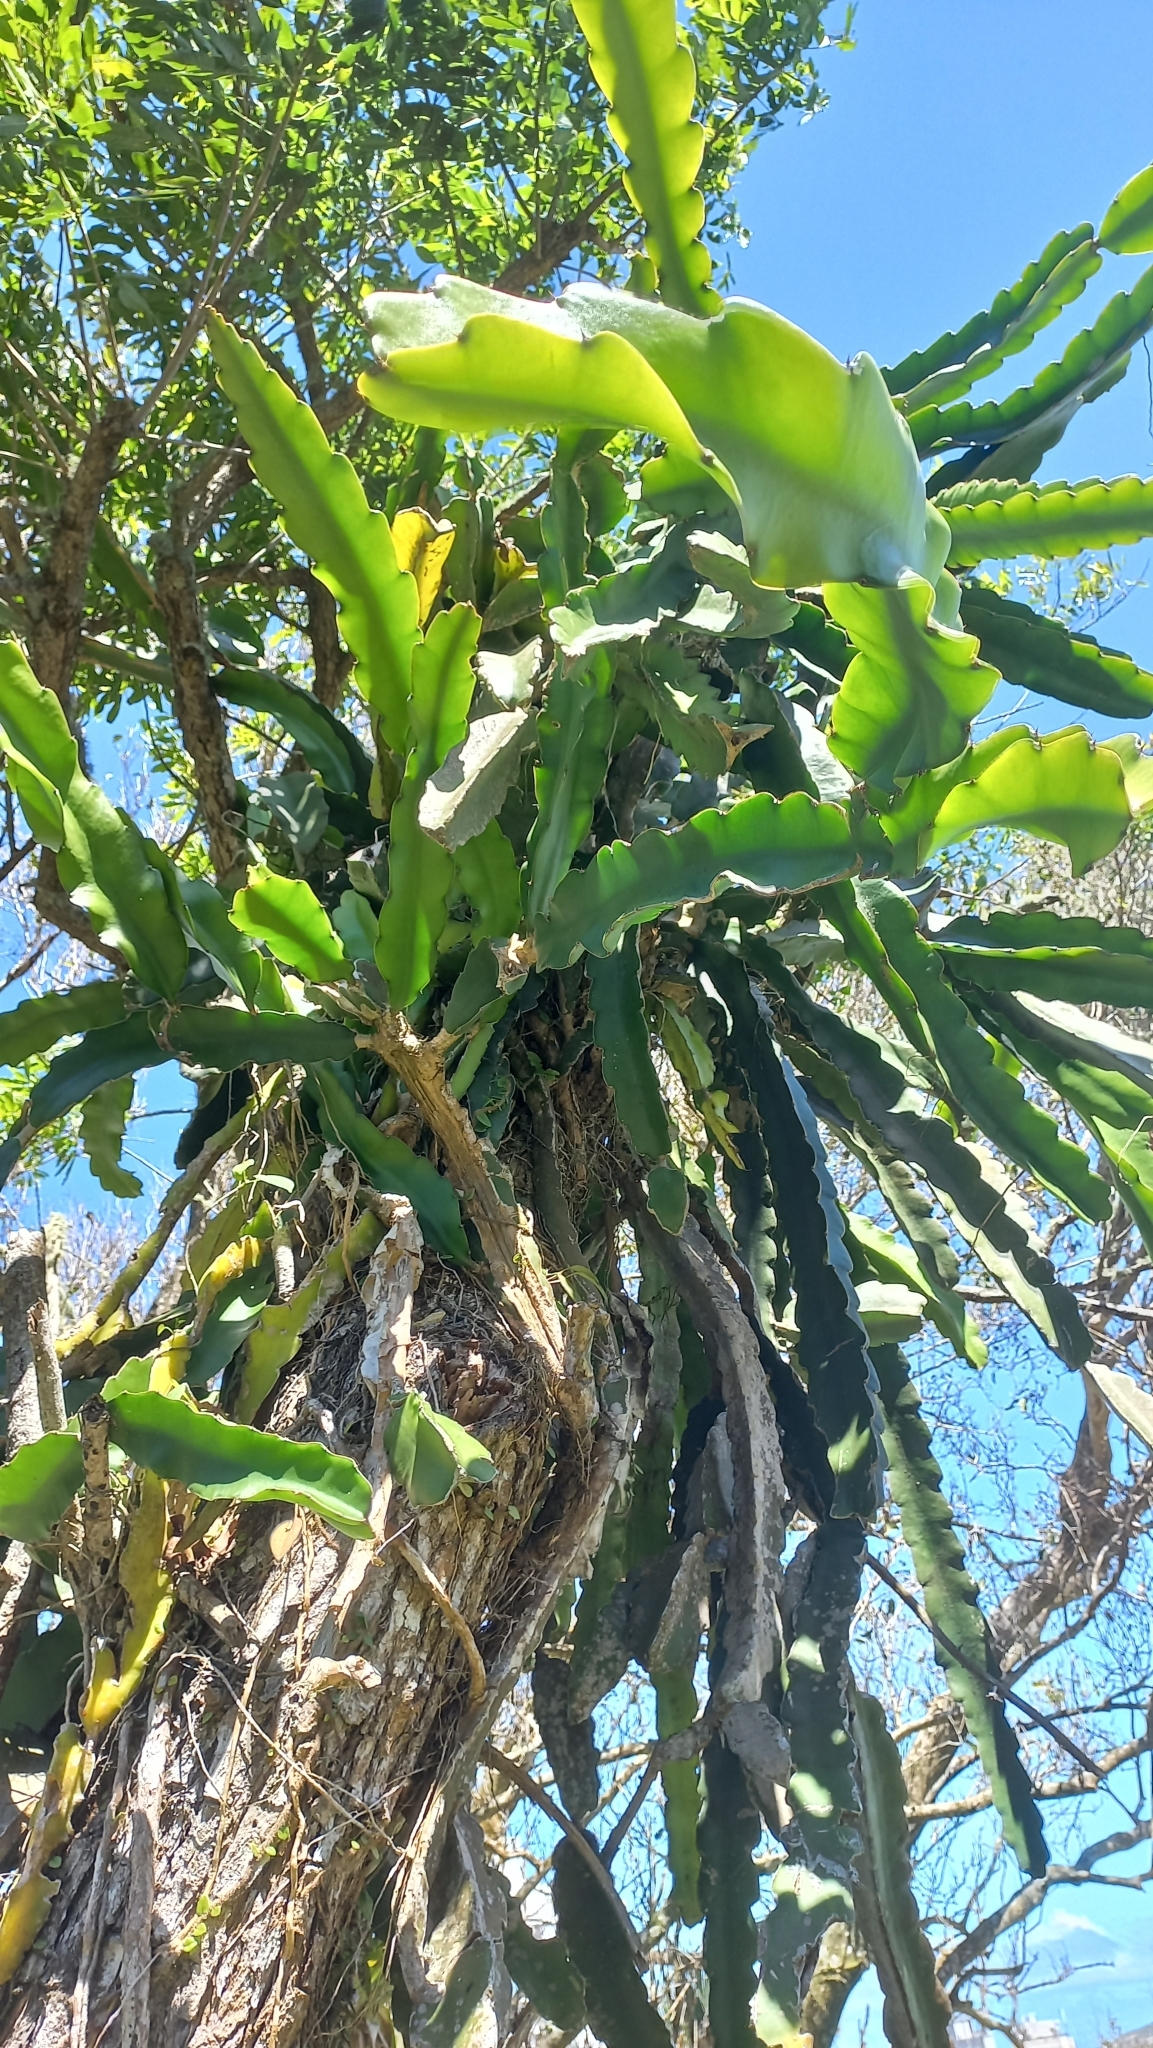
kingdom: Plantae
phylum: Tracheophyta
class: Magnoliopsida
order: Caryophyllales
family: Cactaceae
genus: Selenicereus
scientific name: Selenicereus undatus
